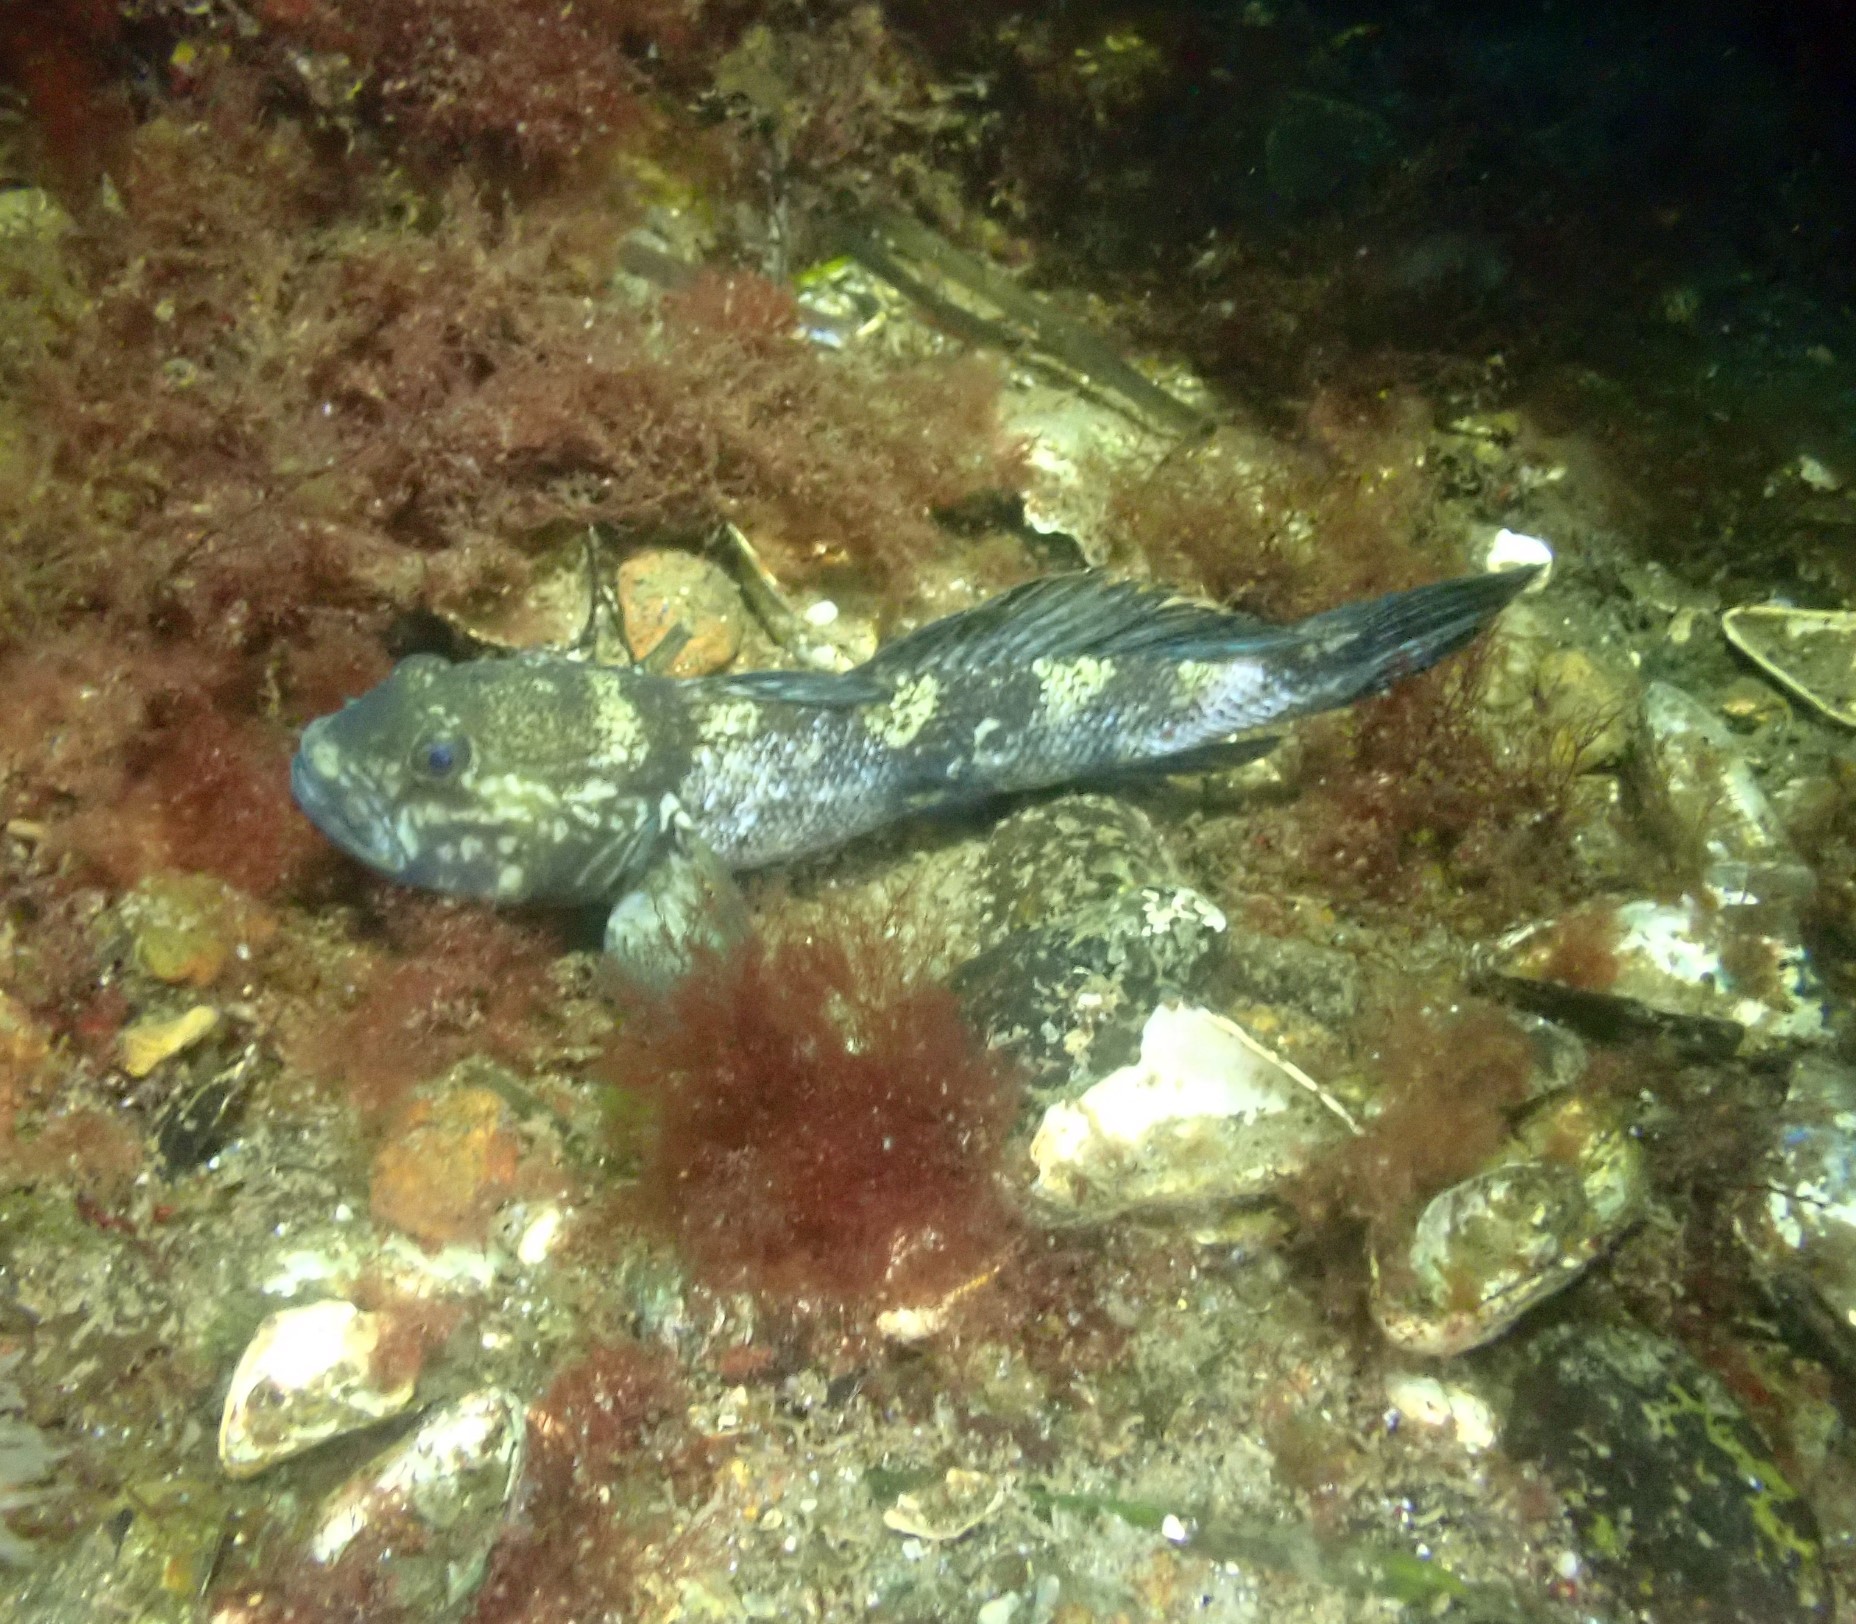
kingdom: Animalia
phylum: Chordata
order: Perciformes
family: Gobiidae
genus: Neogobius
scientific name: Neogobius melanostomus
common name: Round goby
